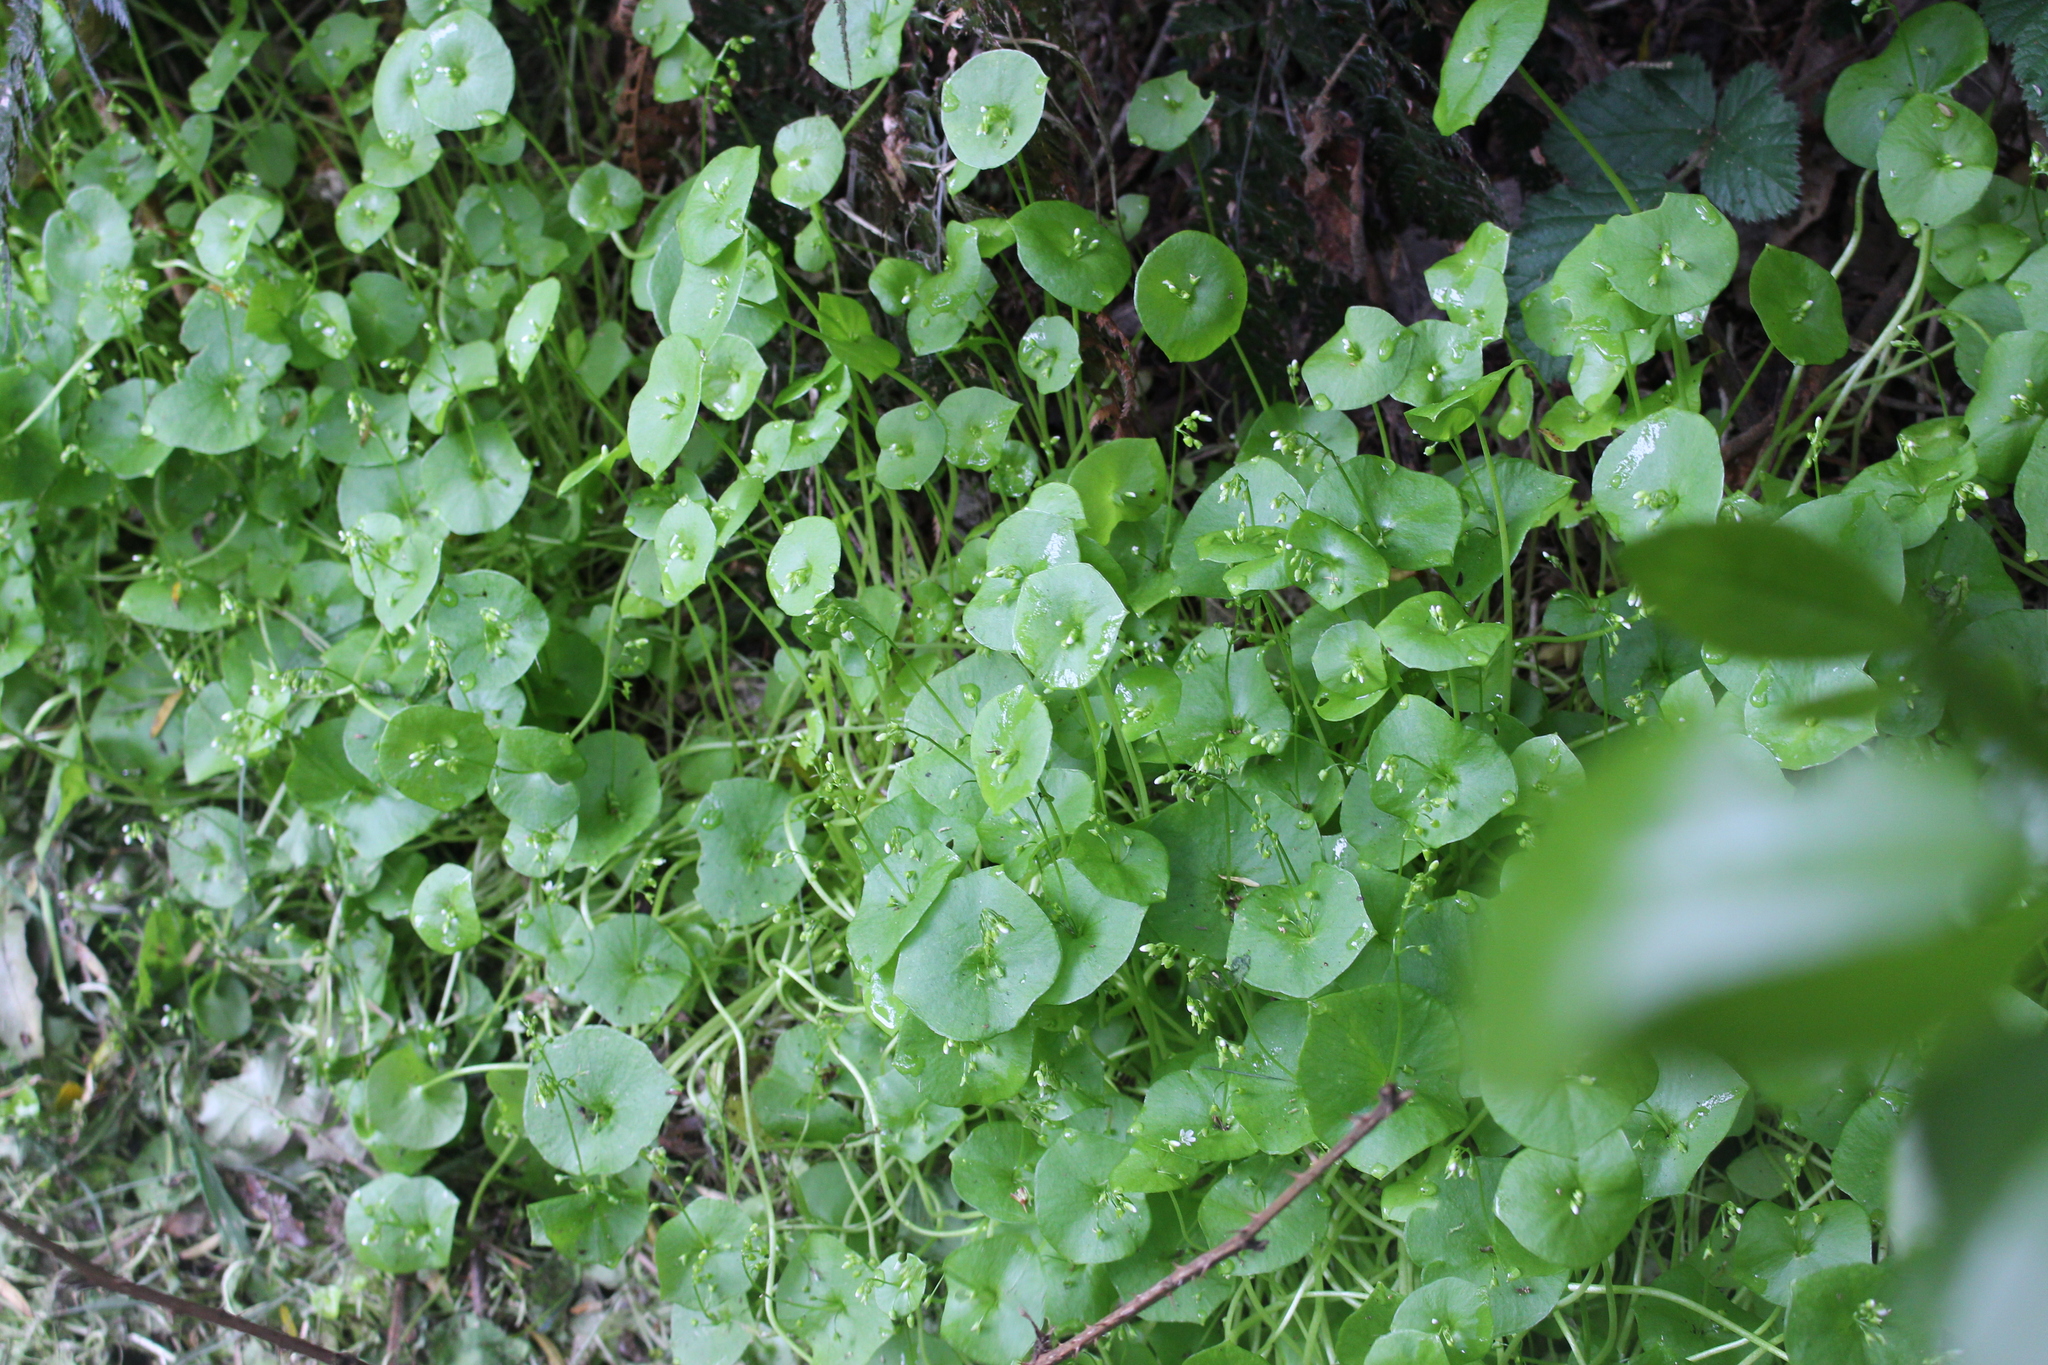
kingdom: Plantae
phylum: Tracheophyta
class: Magnoliopsida
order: Caryophyllales
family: Montiaceae
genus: Claytonia
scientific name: Claytonia perfoliata
